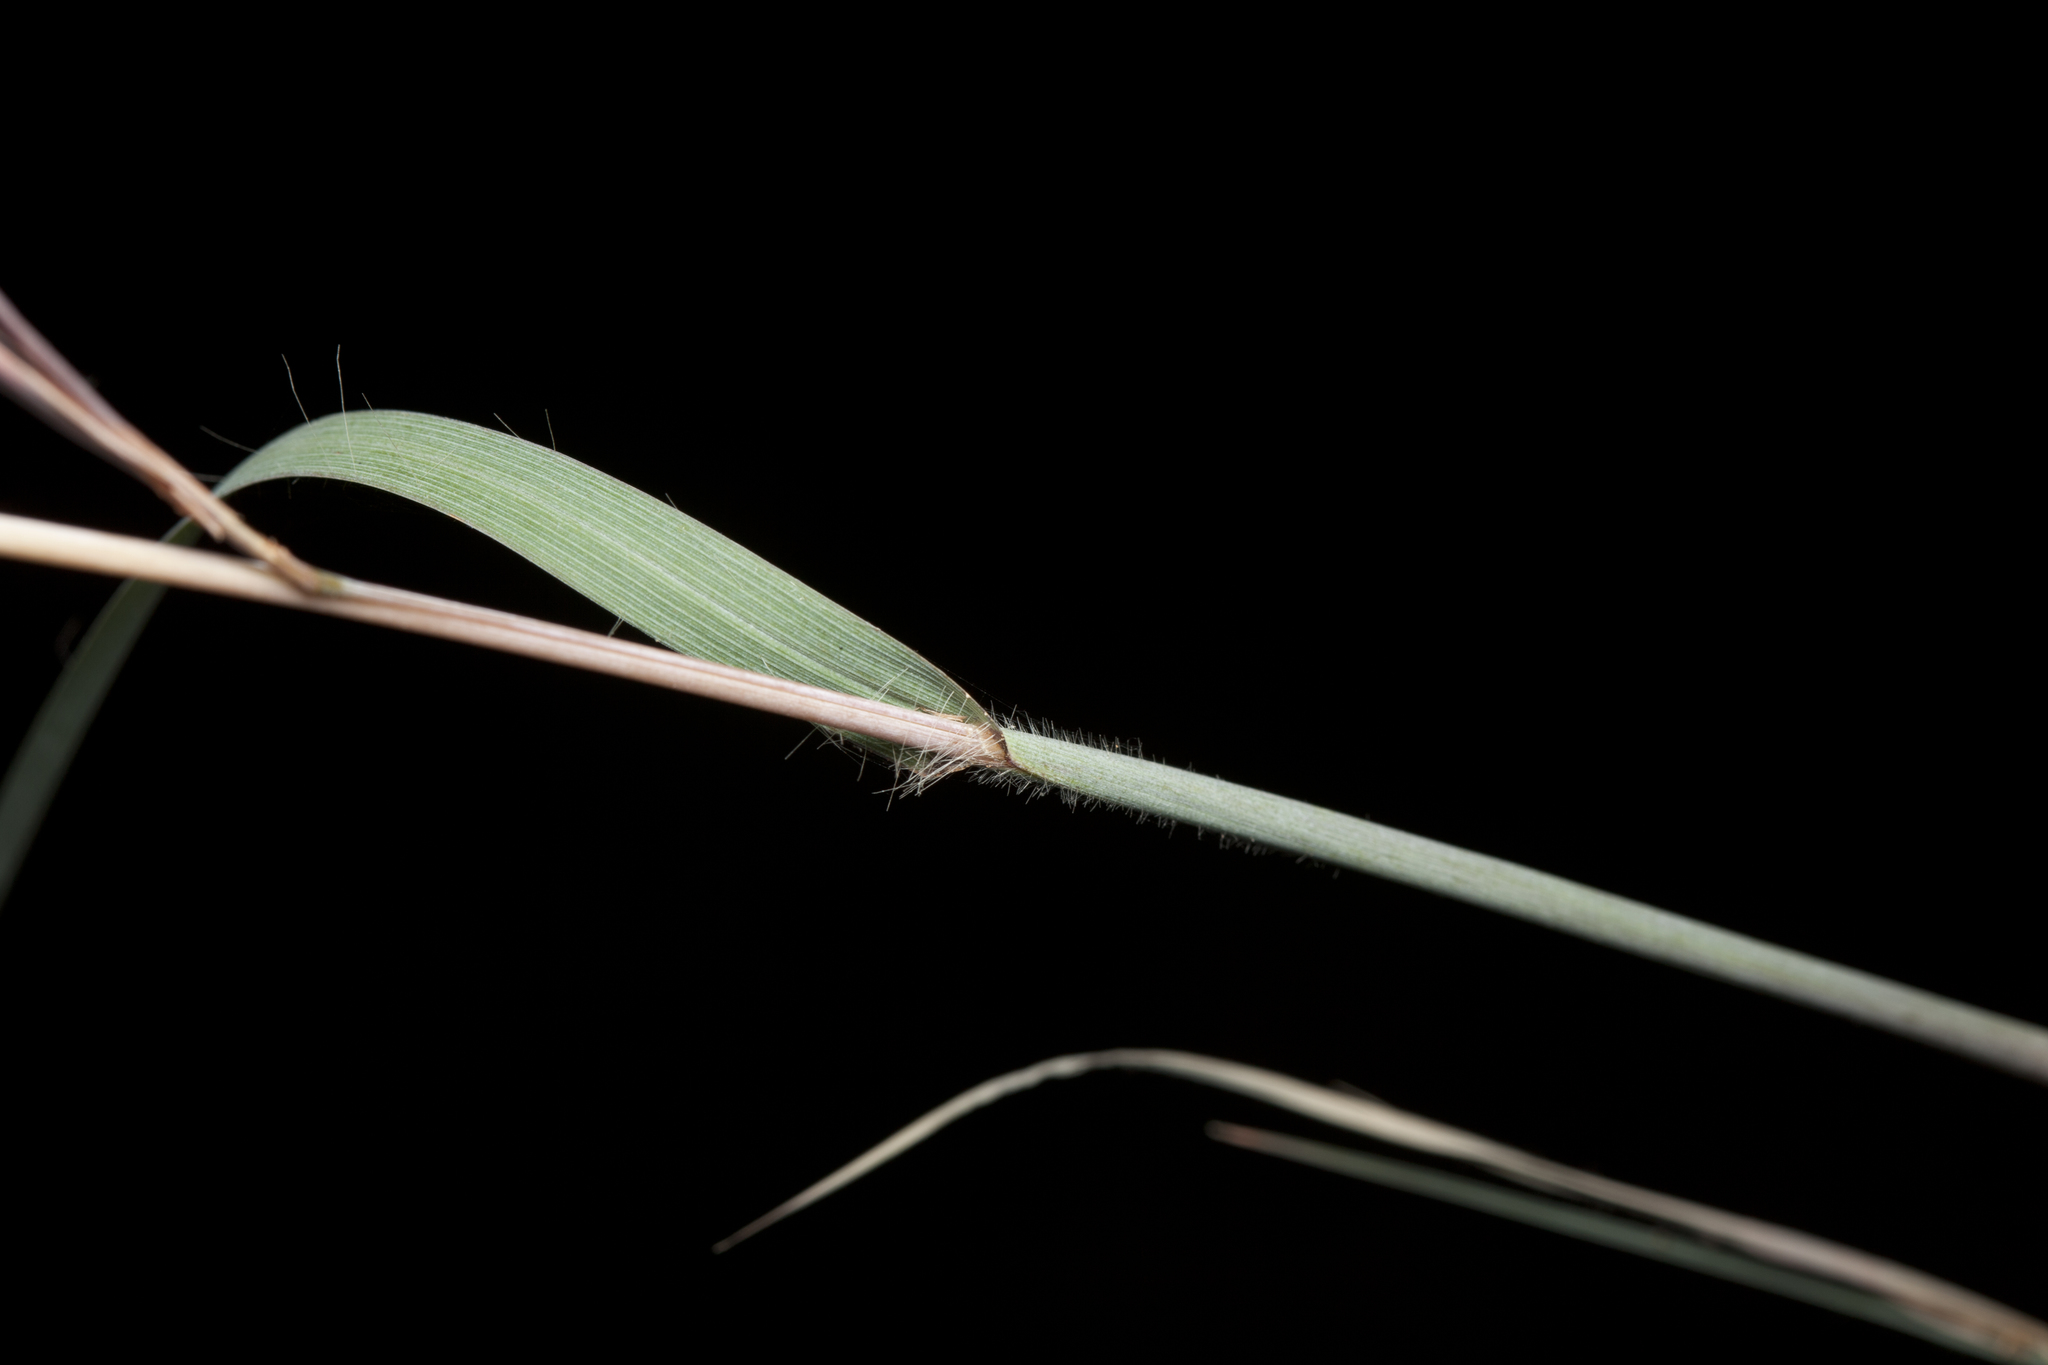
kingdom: Plantae
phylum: Tracheophyta
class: Liliopsida
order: Poales
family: Poaceae
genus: Themeda
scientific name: Themeda triandra
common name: Kangaroo grass
